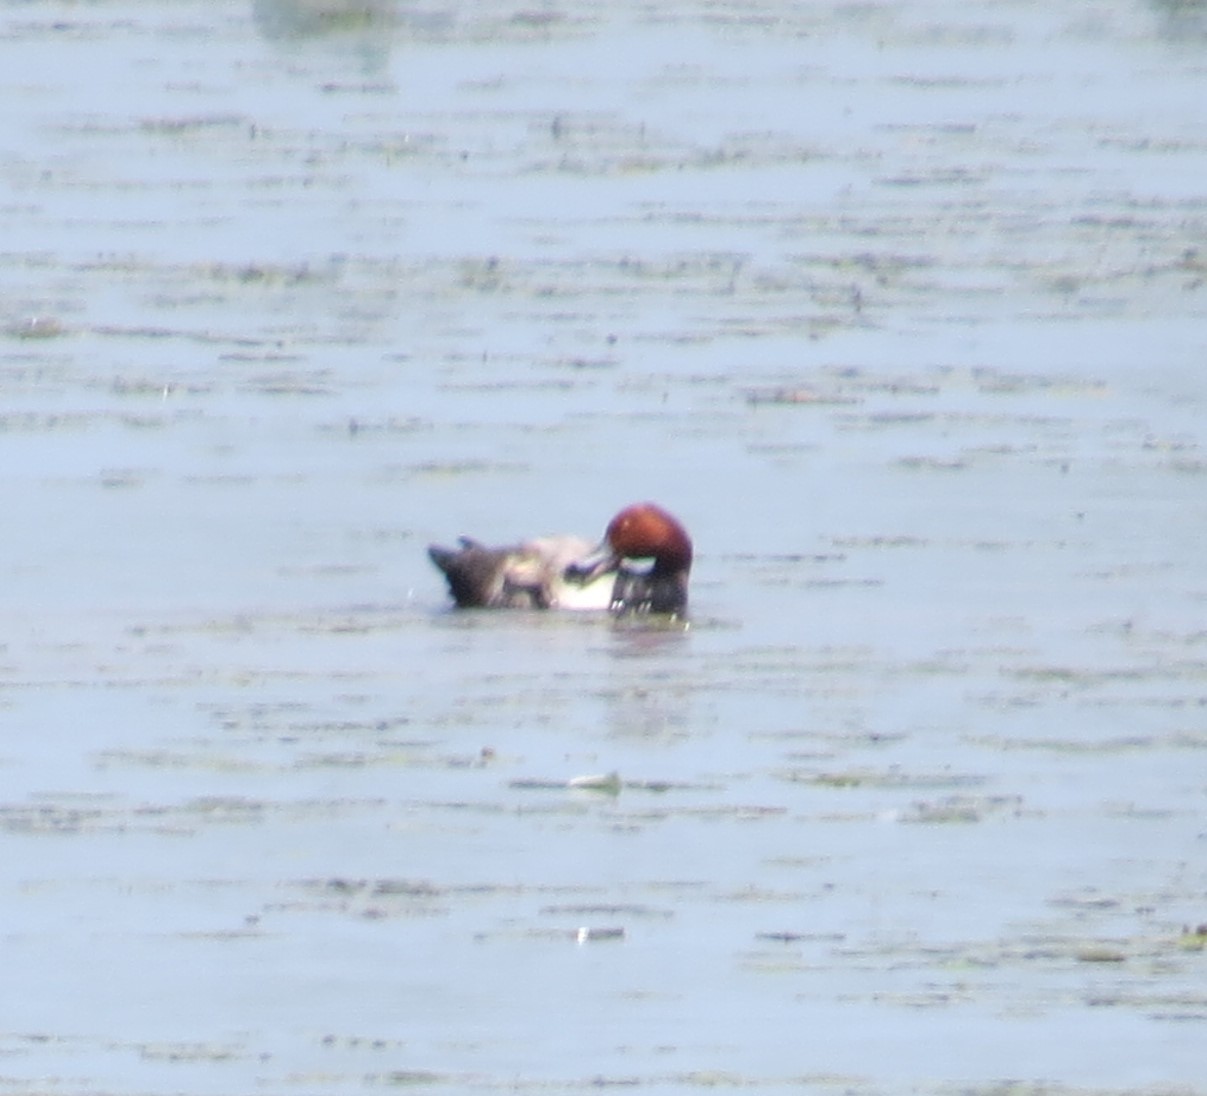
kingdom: Animalia
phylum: Chordata
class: Aves
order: Anseriformes
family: Anatidae
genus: Aythya
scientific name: Aythya americana
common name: Redhead
